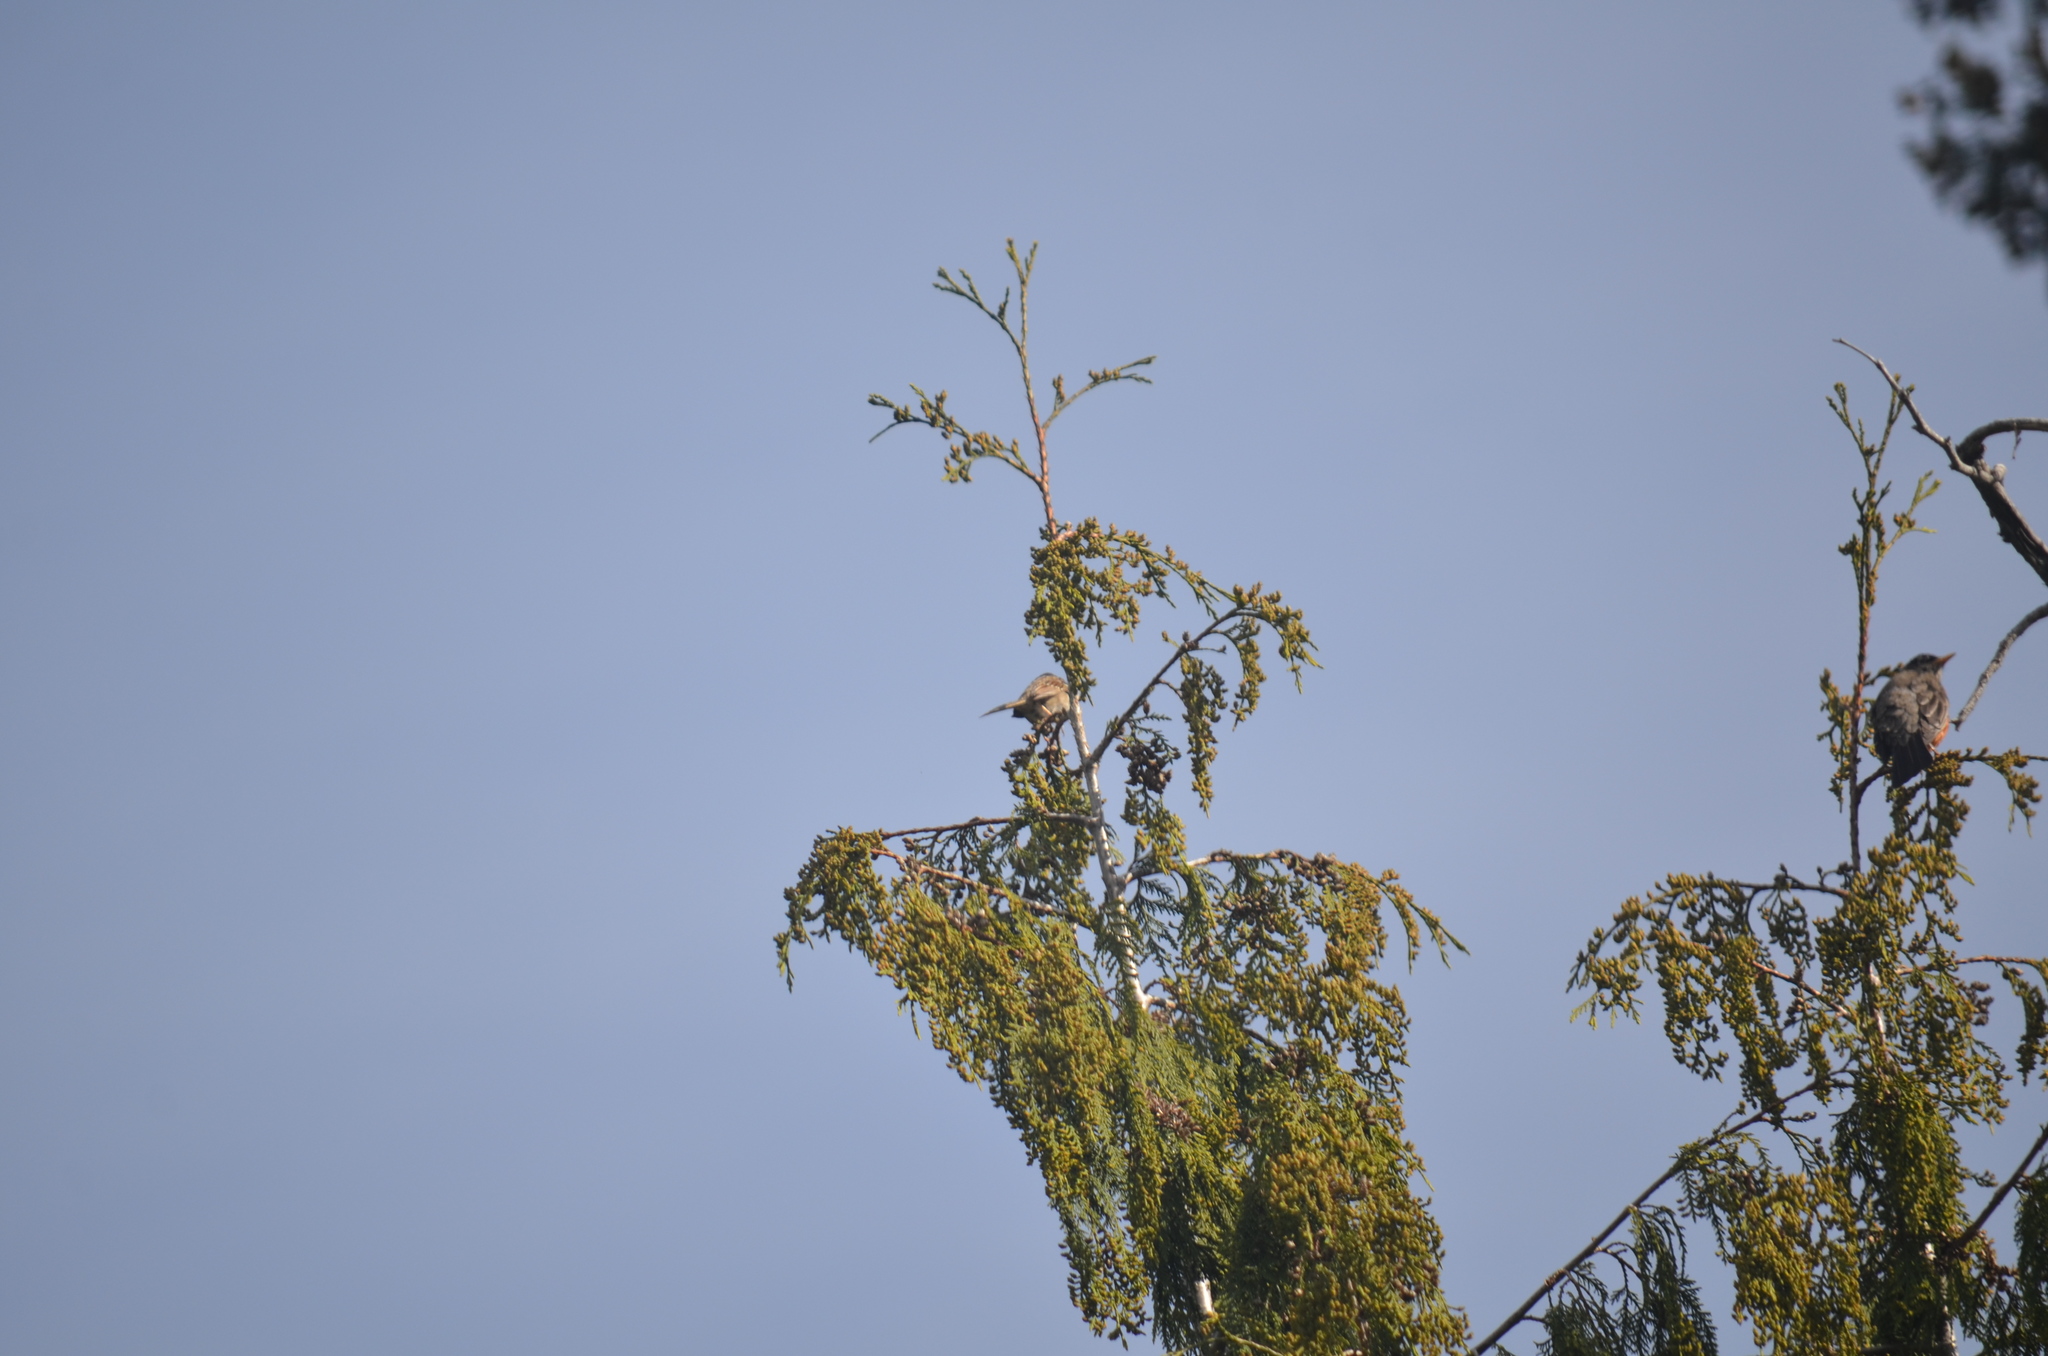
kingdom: Animalia
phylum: Chordata
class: Aves
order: Passeriformes
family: Passerellidae
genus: Zonotrichia
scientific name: Zonotrichia leucophrys
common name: White-crowned sparrow
